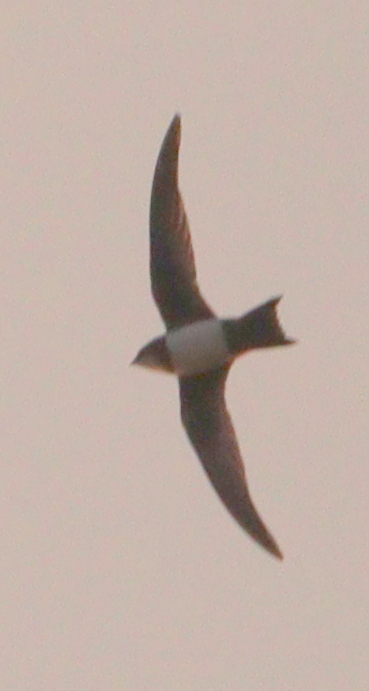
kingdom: Animalia
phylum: Chordata
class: Aves
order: Apodiformes
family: Apodidae
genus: Tachymarptis
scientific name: Tachymarptis melba
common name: Alpine swift
